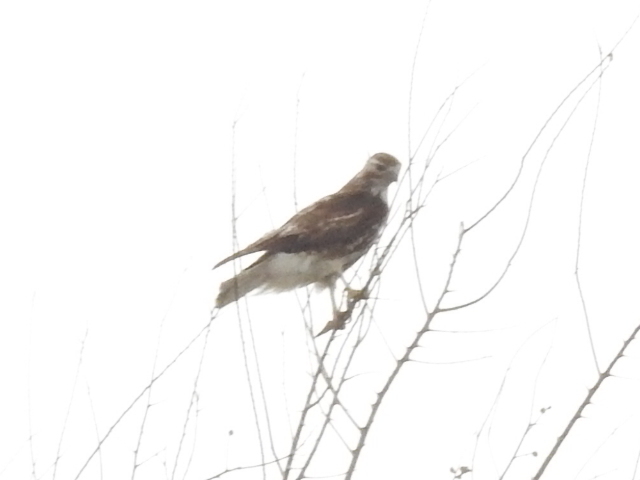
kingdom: Animalia
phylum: Chordata
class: Aves
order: Accipitriformes
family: Accipitridae
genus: Buteo
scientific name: Buteo jamaicensis
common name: Red-tailed hawk
